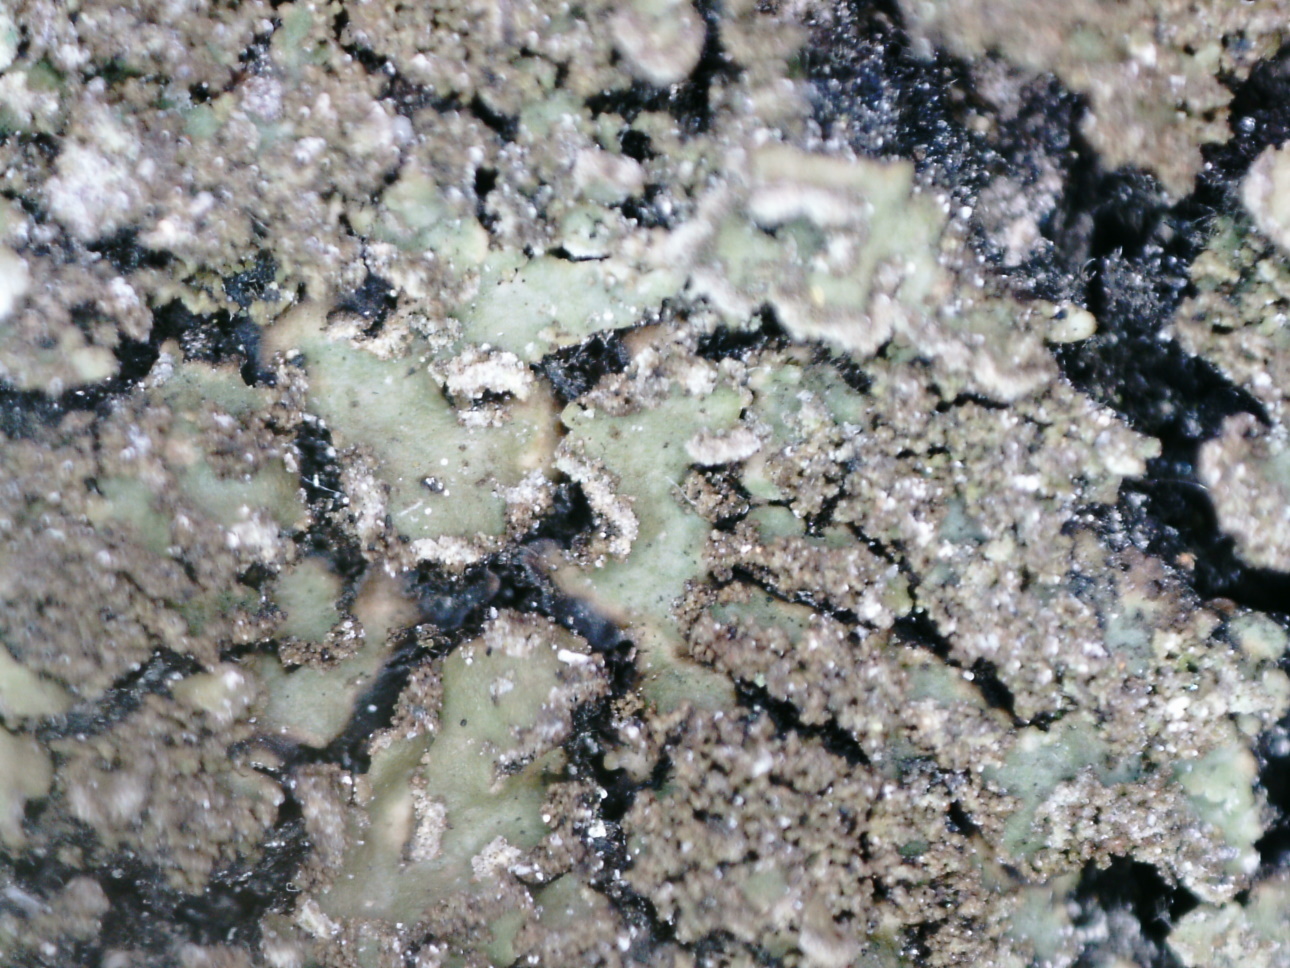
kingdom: Fungi
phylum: Ascomycota
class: Lecanoromycetes
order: Caliciales
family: Physciaceae
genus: Physconia
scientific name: Physconia perisidiosa
